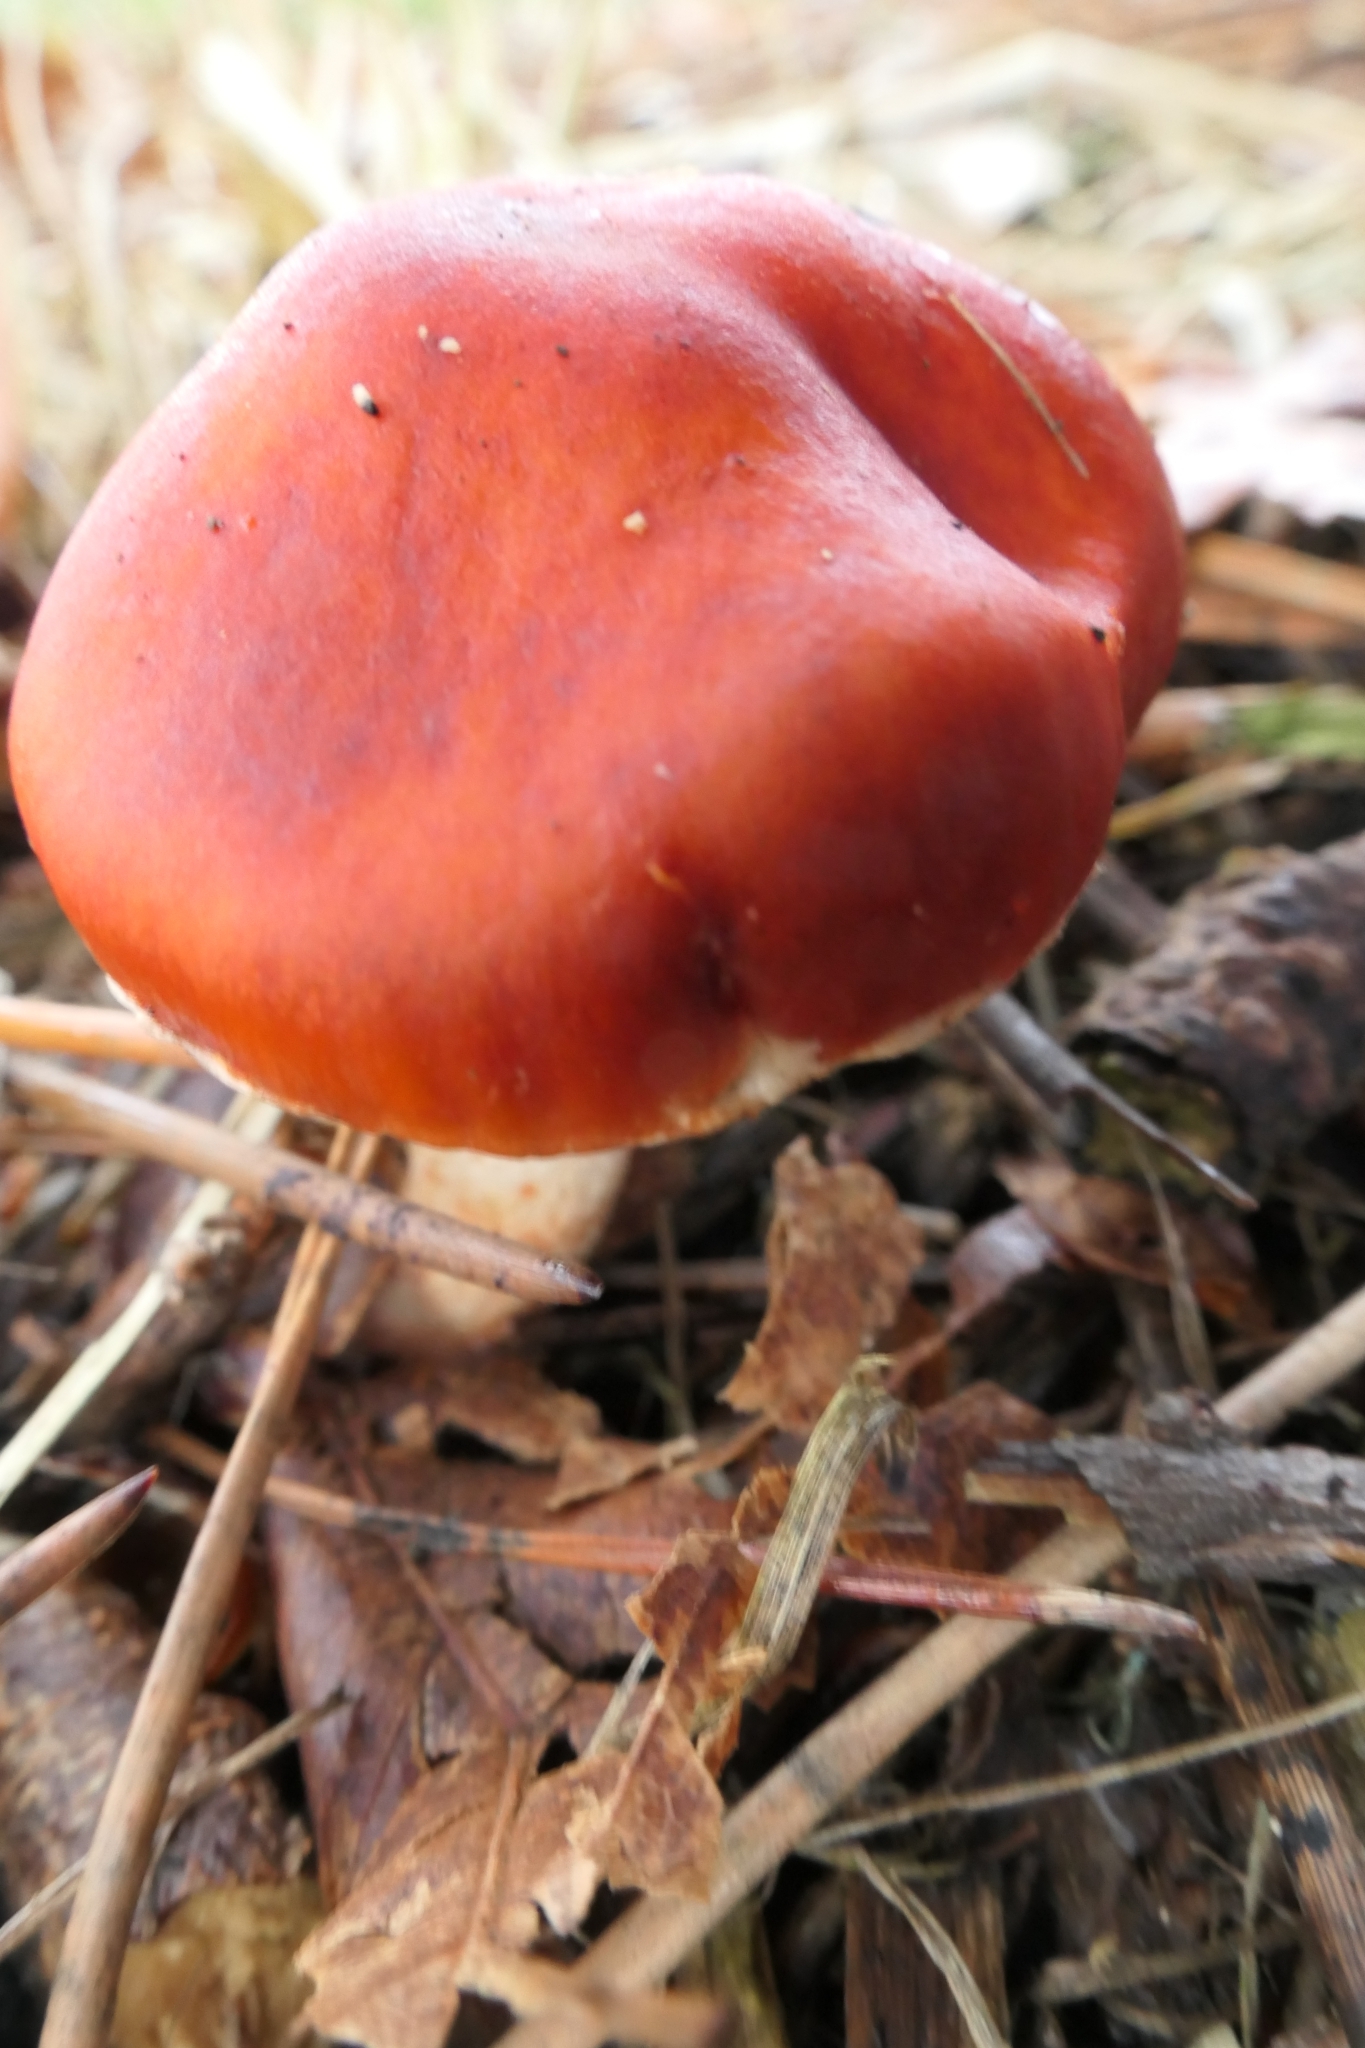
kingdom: Fungi
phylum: Basidiomycota
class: Agaricomycetes
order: Agaricales
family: Strophariaceae
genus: Leratiomyces
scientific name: Leratiomyces ceres
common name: Redlead roundhead
